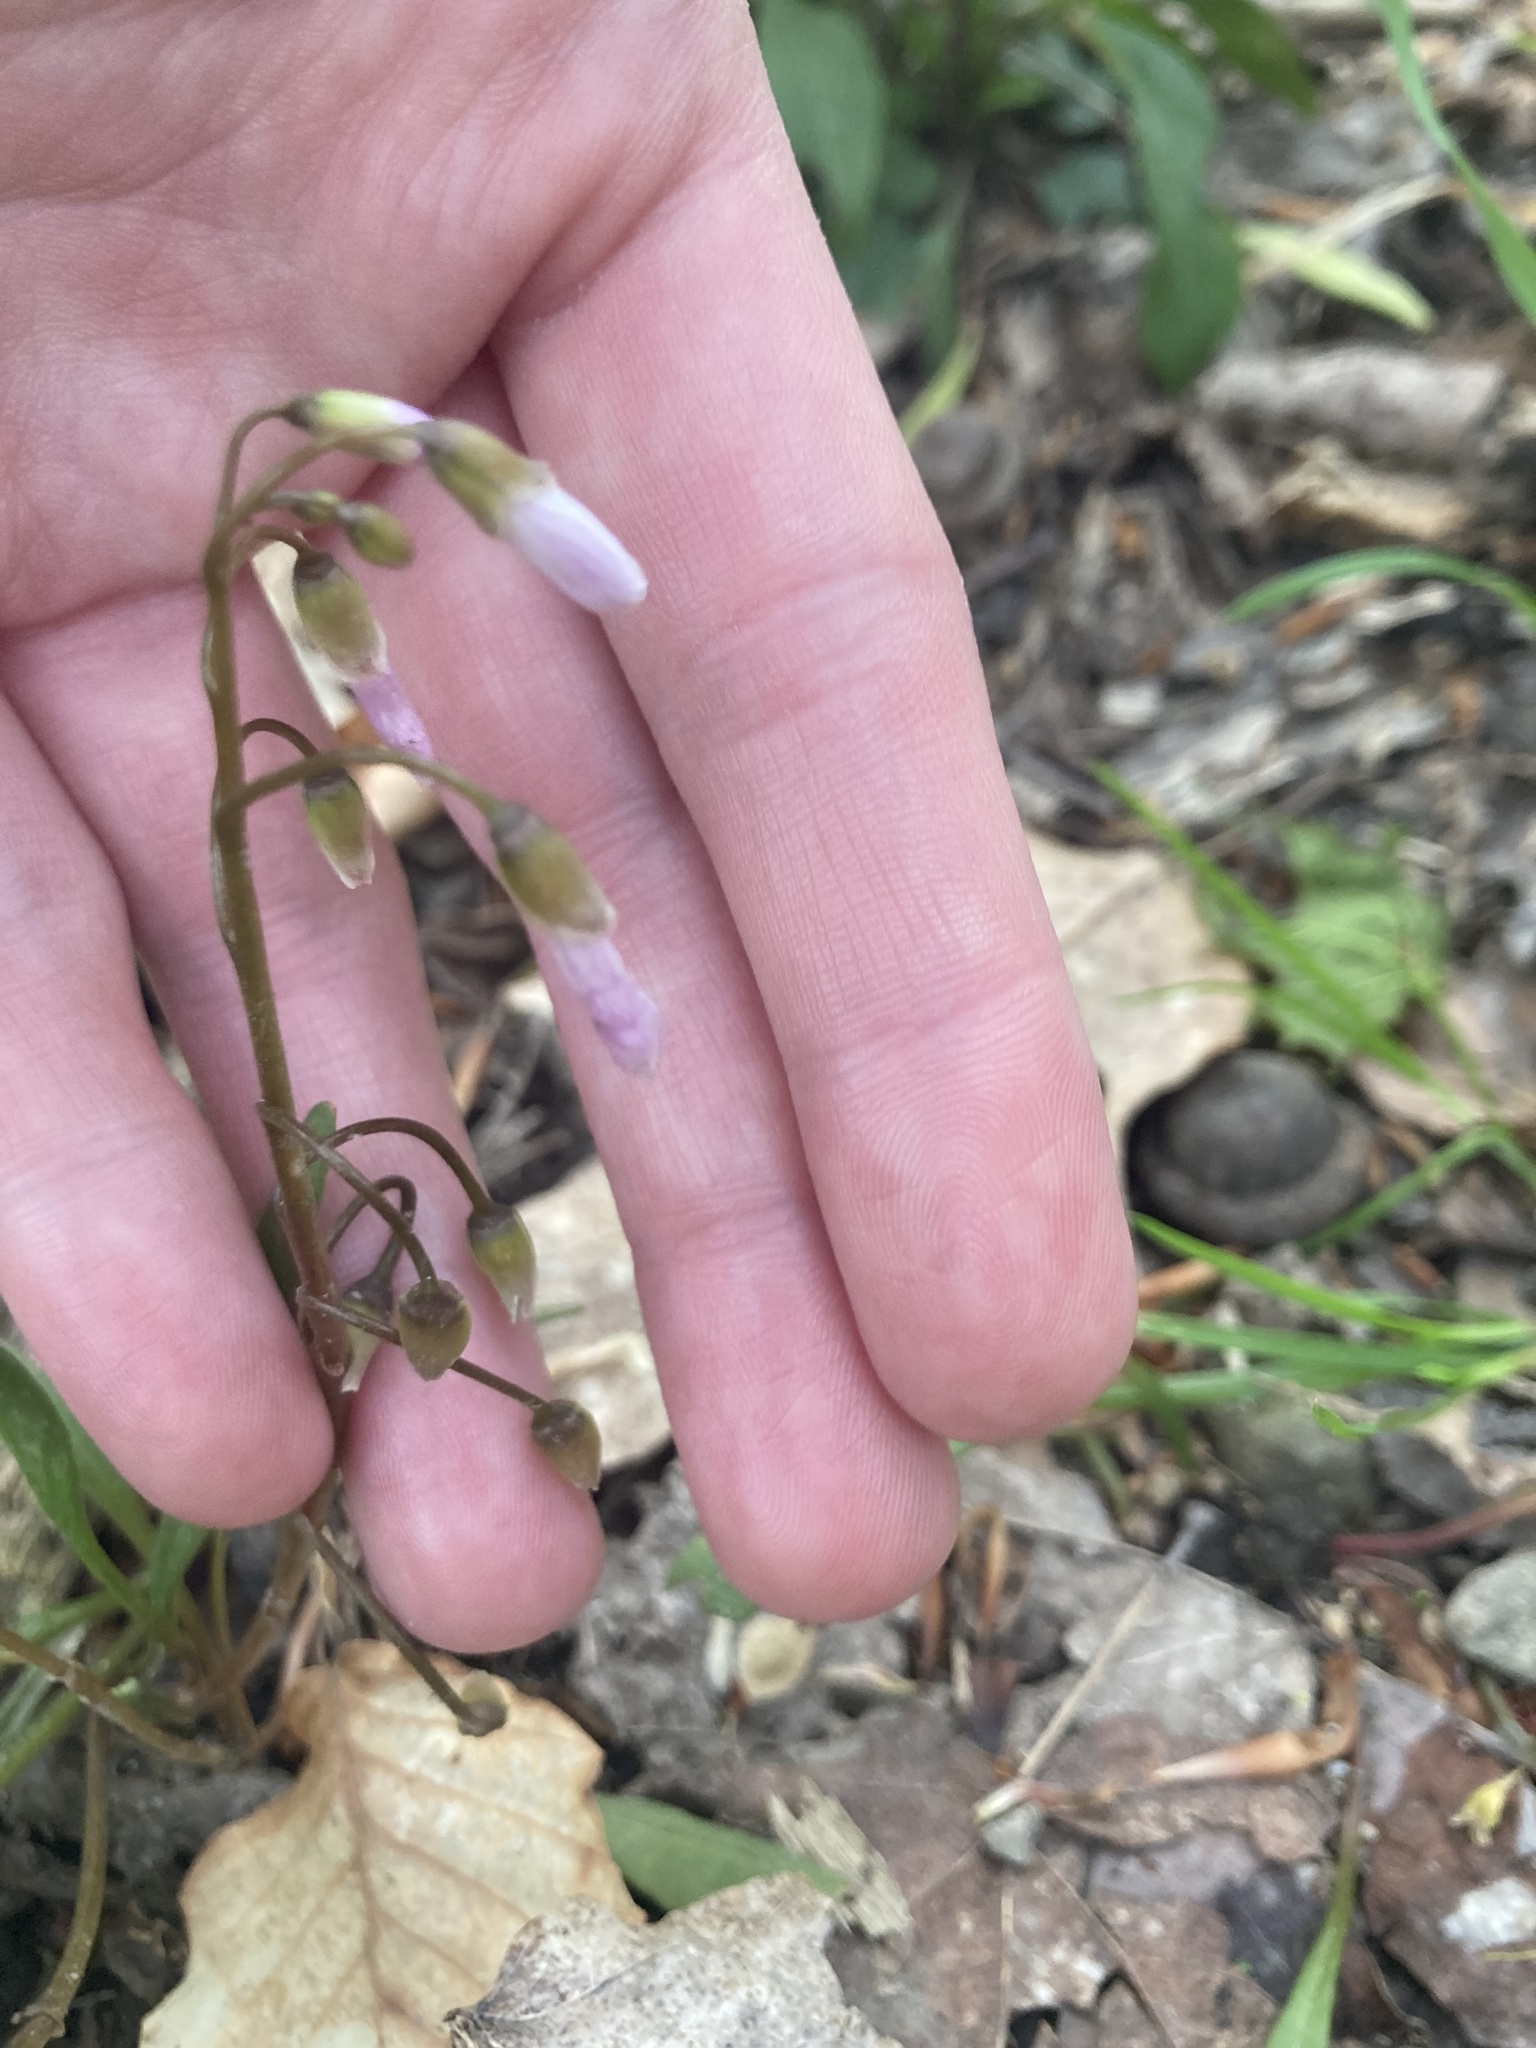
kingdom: Plantae
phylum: Tracheophyta
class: Magnoliopsida
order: Caryophyllales
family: Montiaceae
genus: Claytonia
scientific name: Claytonia virginica
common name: Virginia springbeauty
